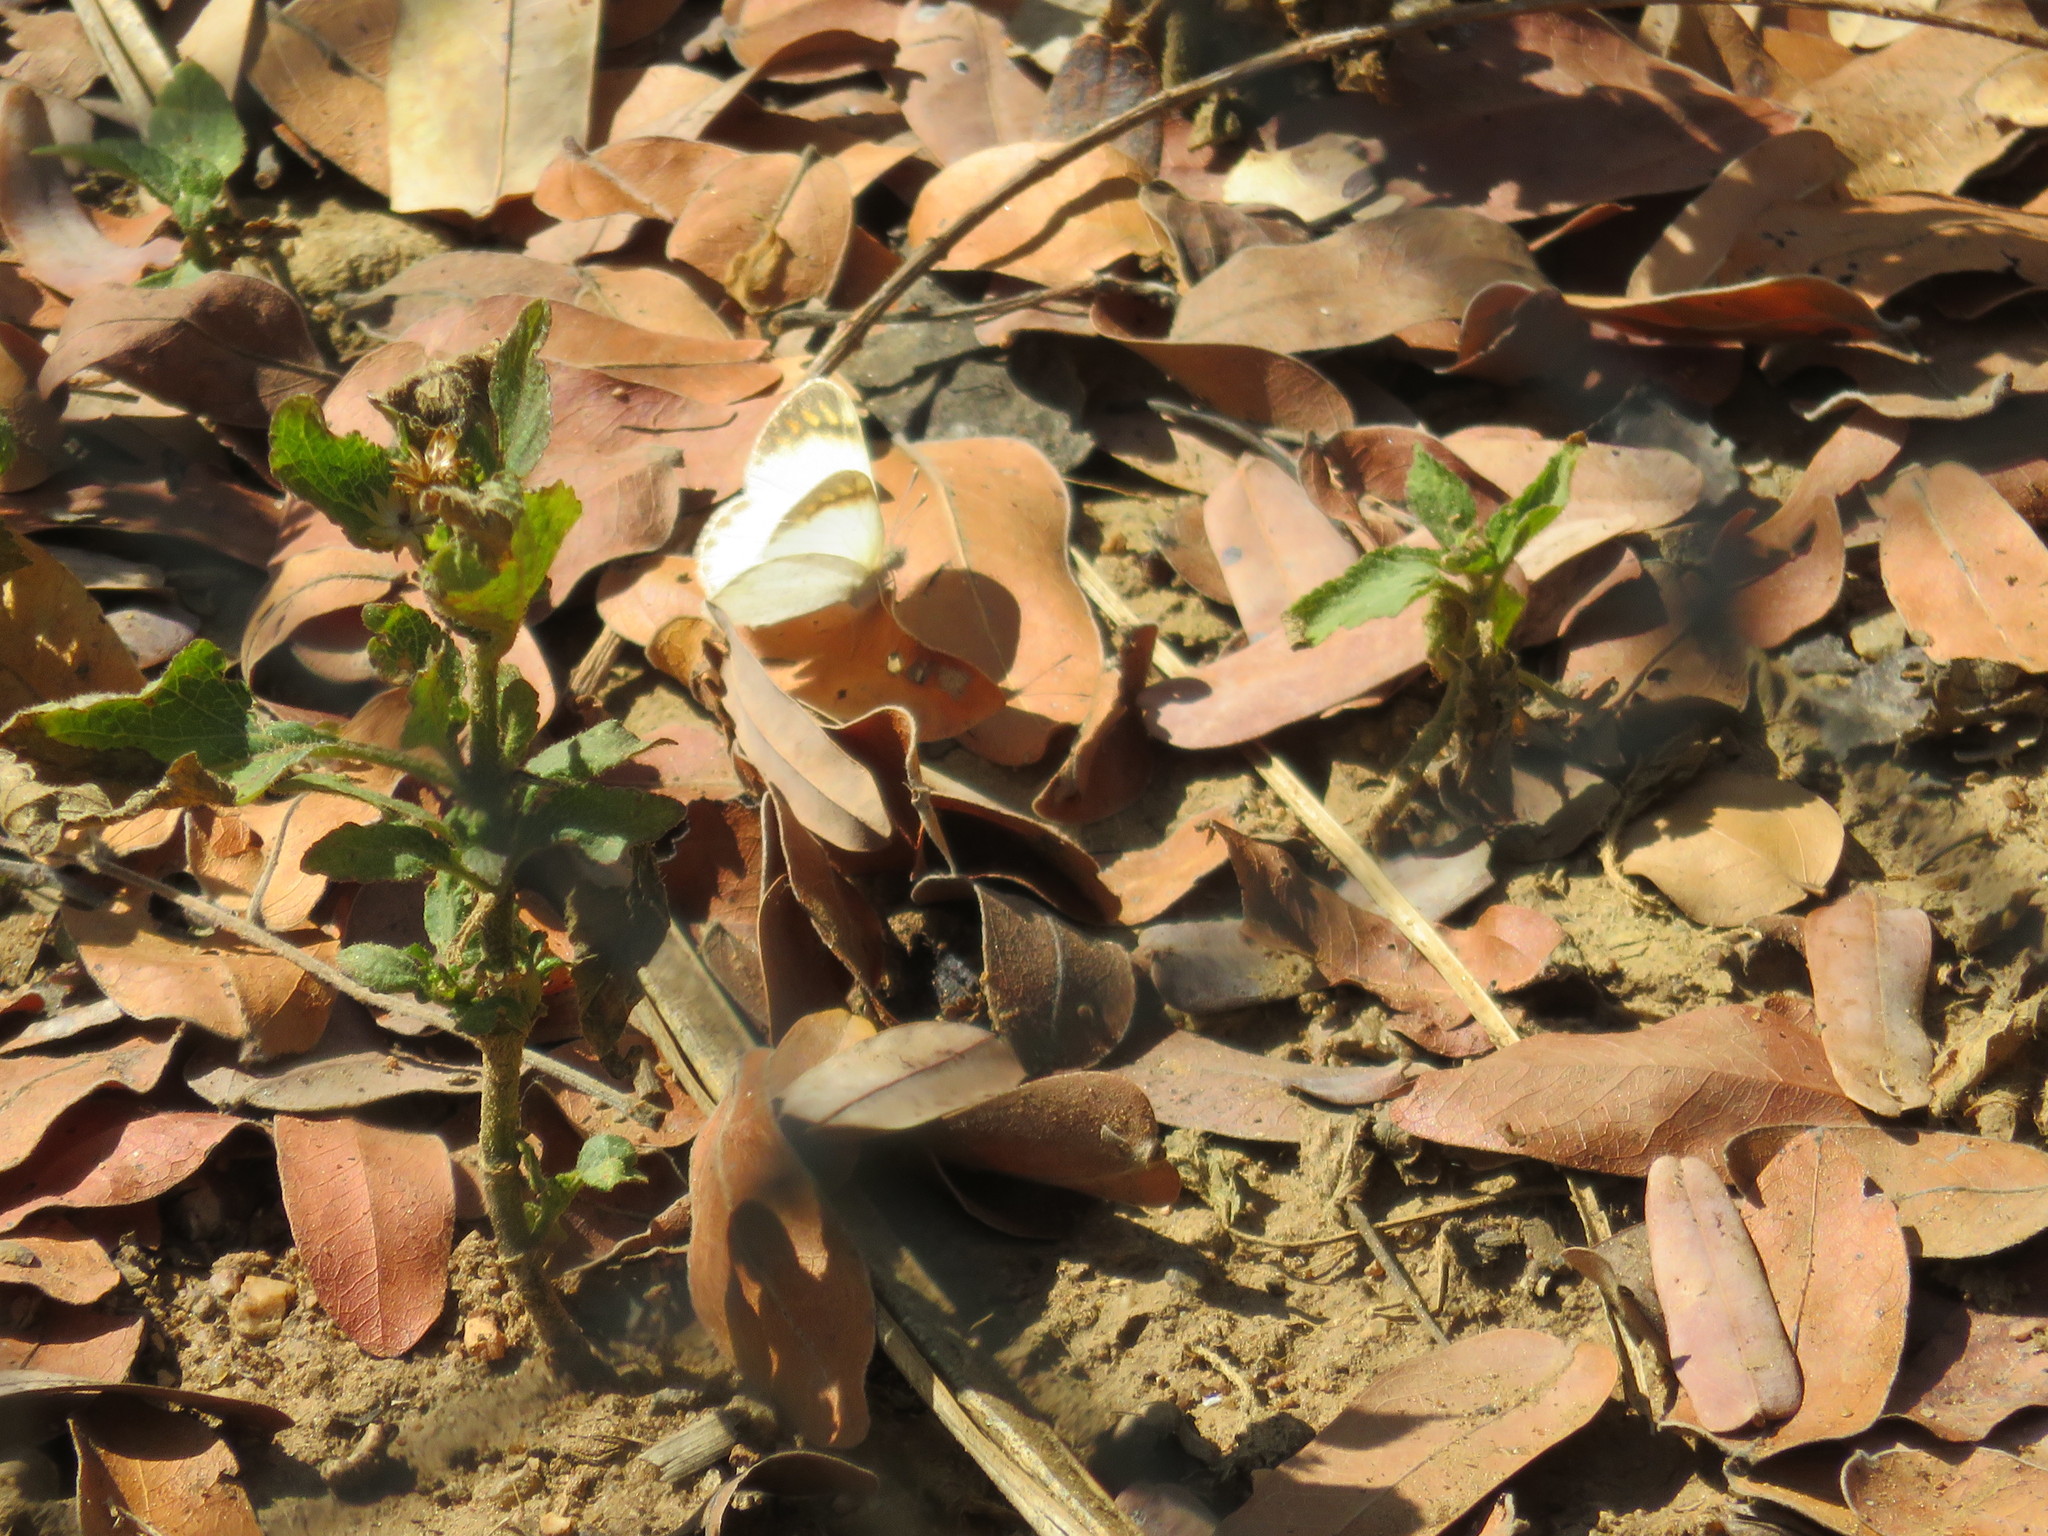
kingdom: Animalia
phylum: Arthropoda
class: Insecta
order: Lepidoptera
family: Pieridae
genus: Colotis
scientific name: Colotis evagore
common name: Desert orange-tip
